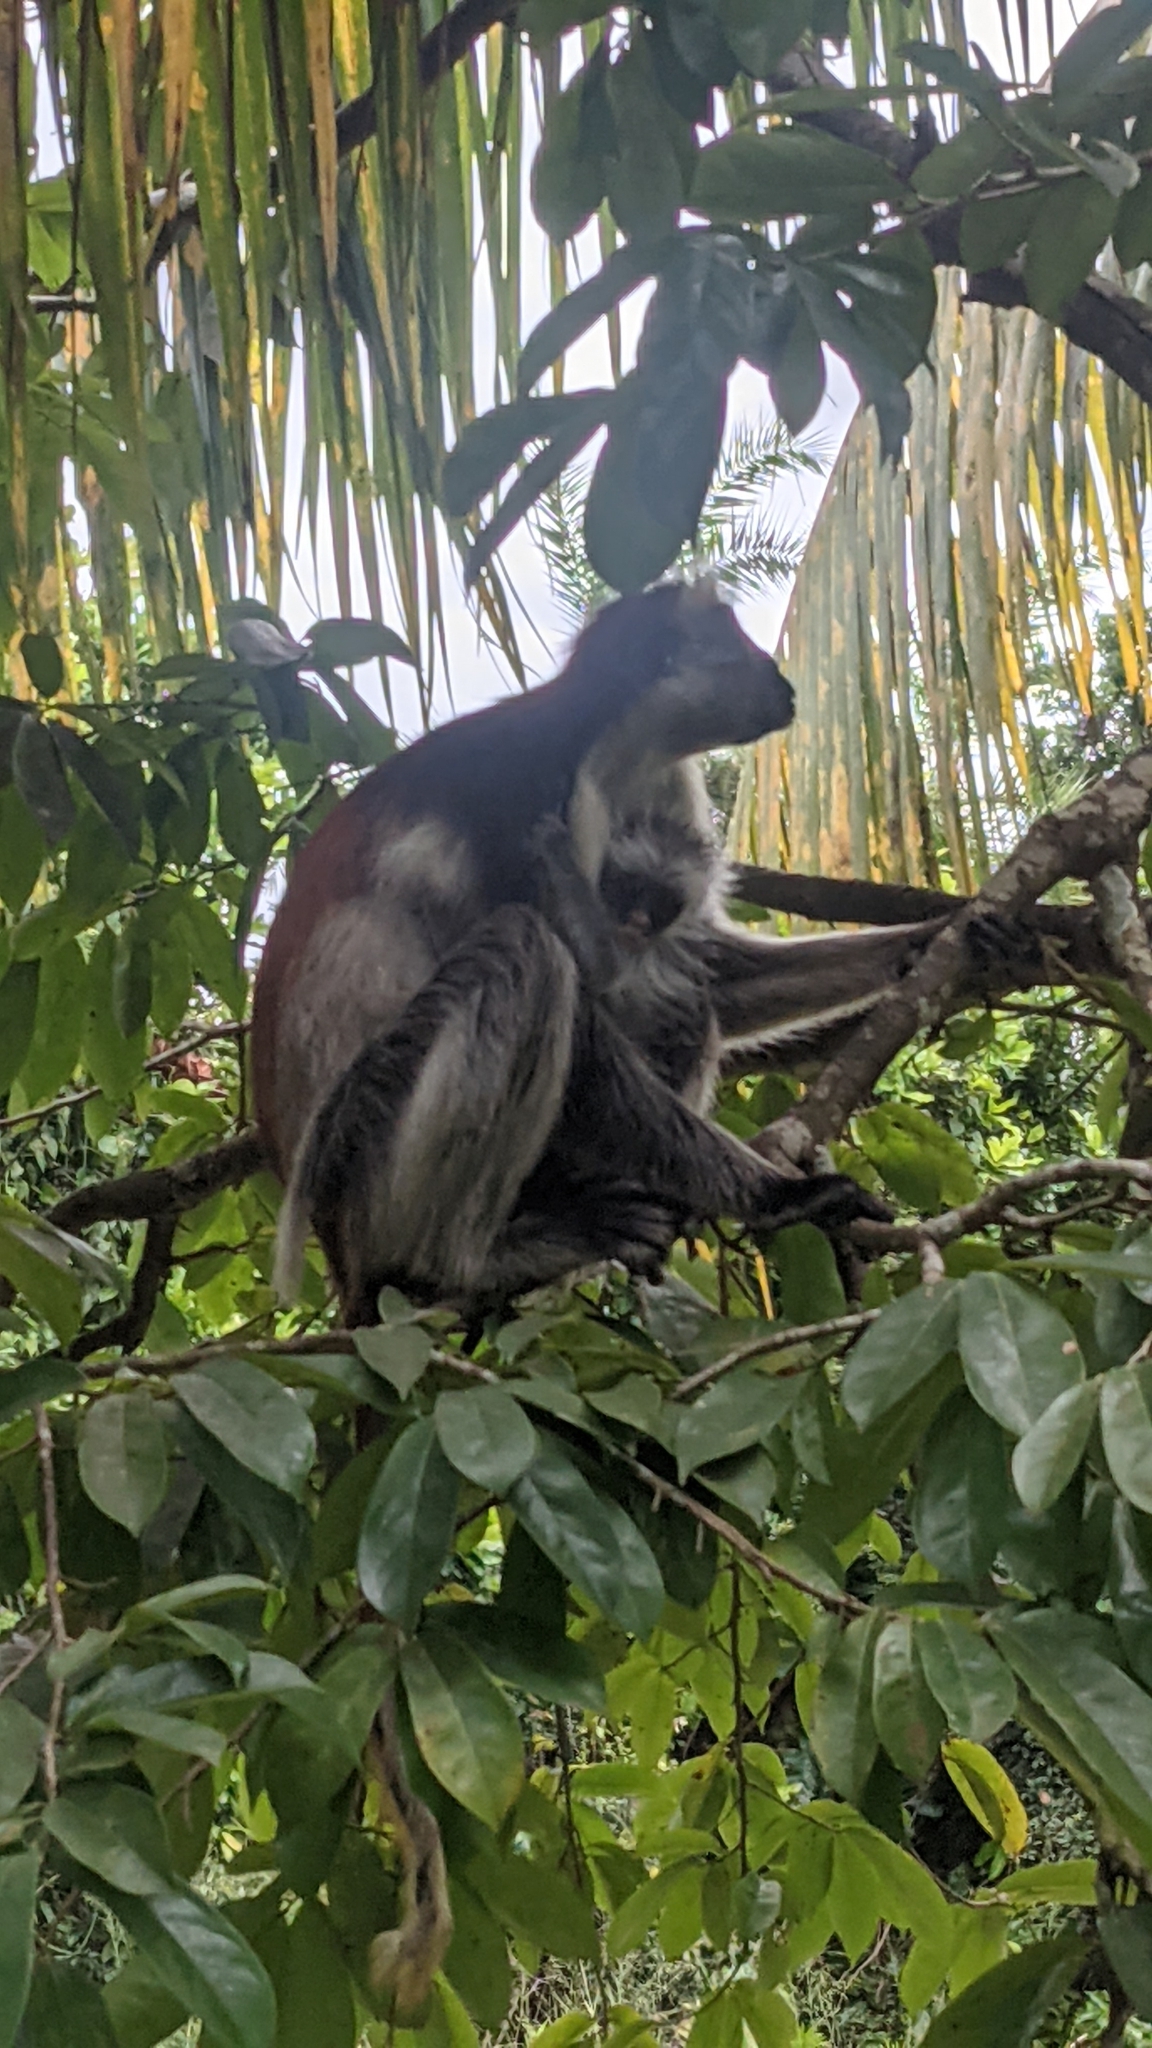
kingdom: Animalia
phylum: Chordata
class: Mammalia
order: Primates
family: Cercopithecidae
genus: Piliocolobus
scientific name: Piliocolobus kirkii
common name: Zanzibar red colobus
